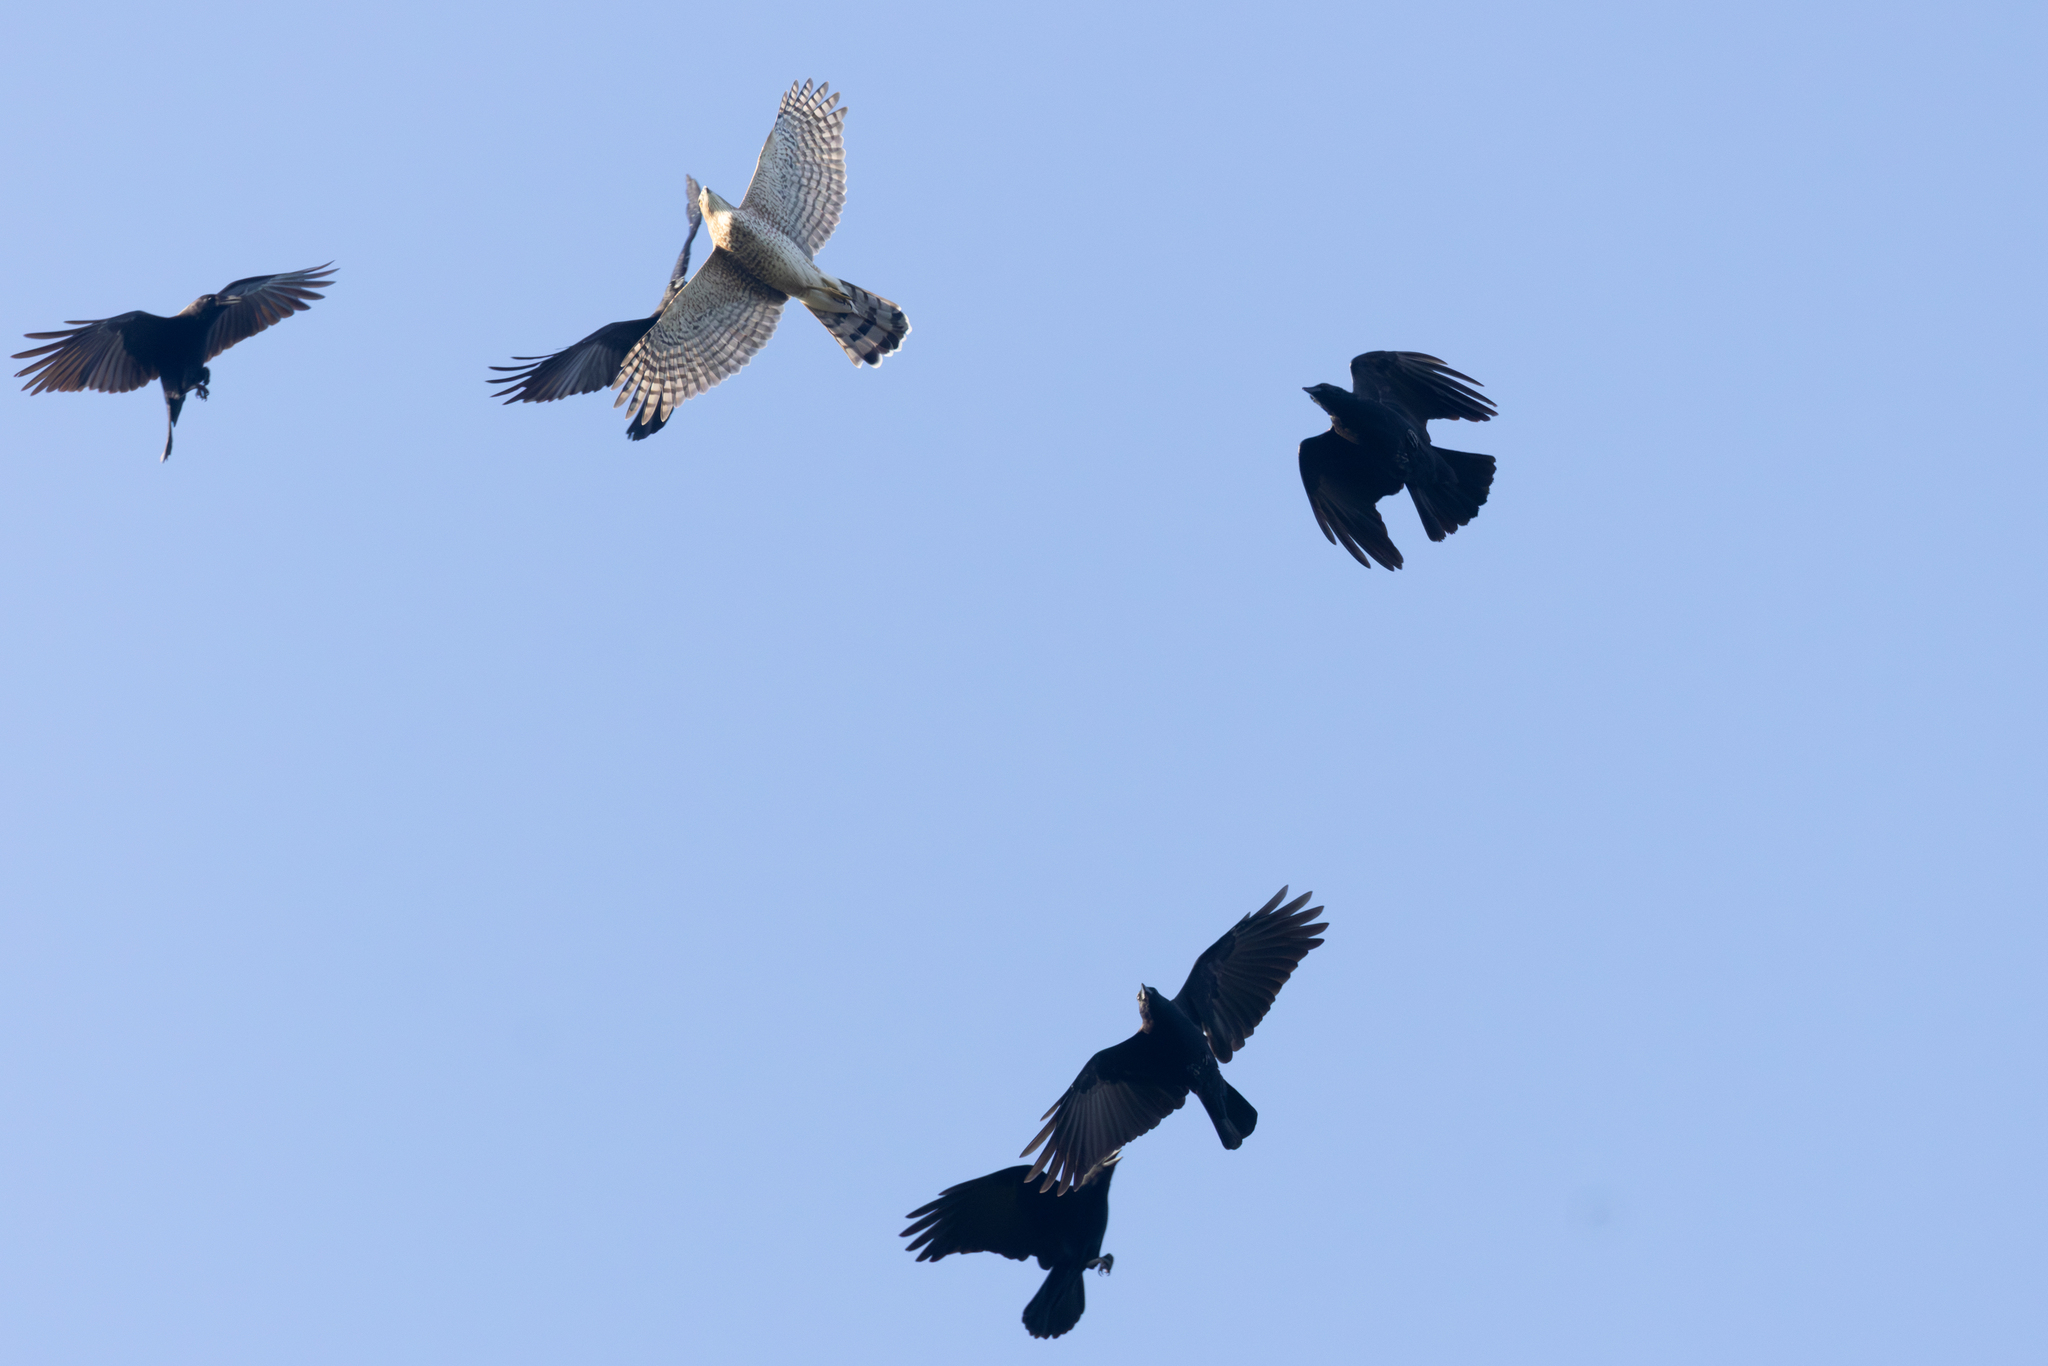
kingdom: Animalia
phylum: Chordata
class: Aves
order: Accipitriformes
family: Accipitridae
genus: Accipiter
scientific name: Accipiter cooperii
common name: Cooper's hawk
